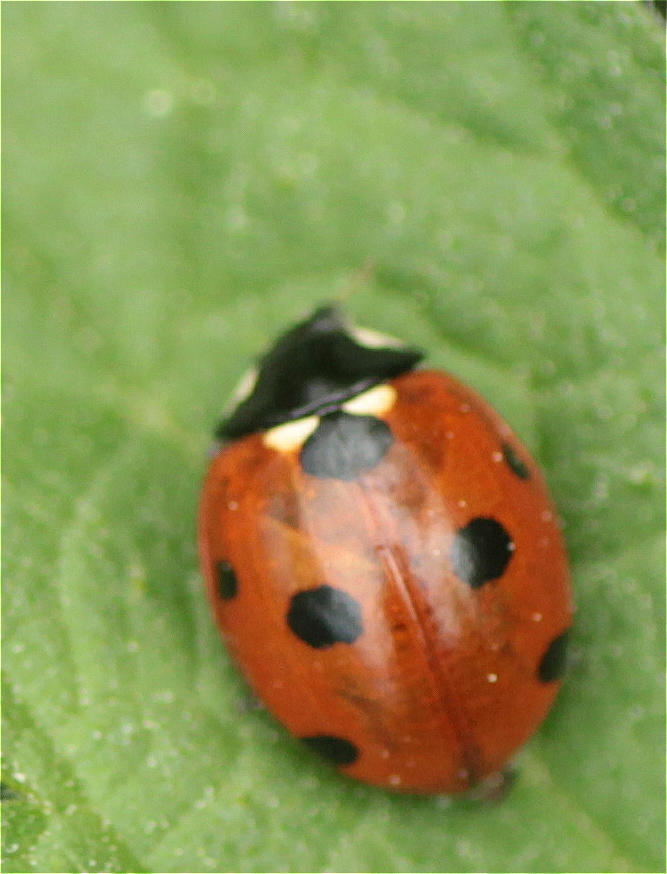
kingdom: Animalia
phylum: Arthropoda
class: Insecta
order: Coleoptera
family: Coccinellidae
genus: Coccinella
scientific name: Coccinella septempunctata
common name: Sevenspotted lady beetle
